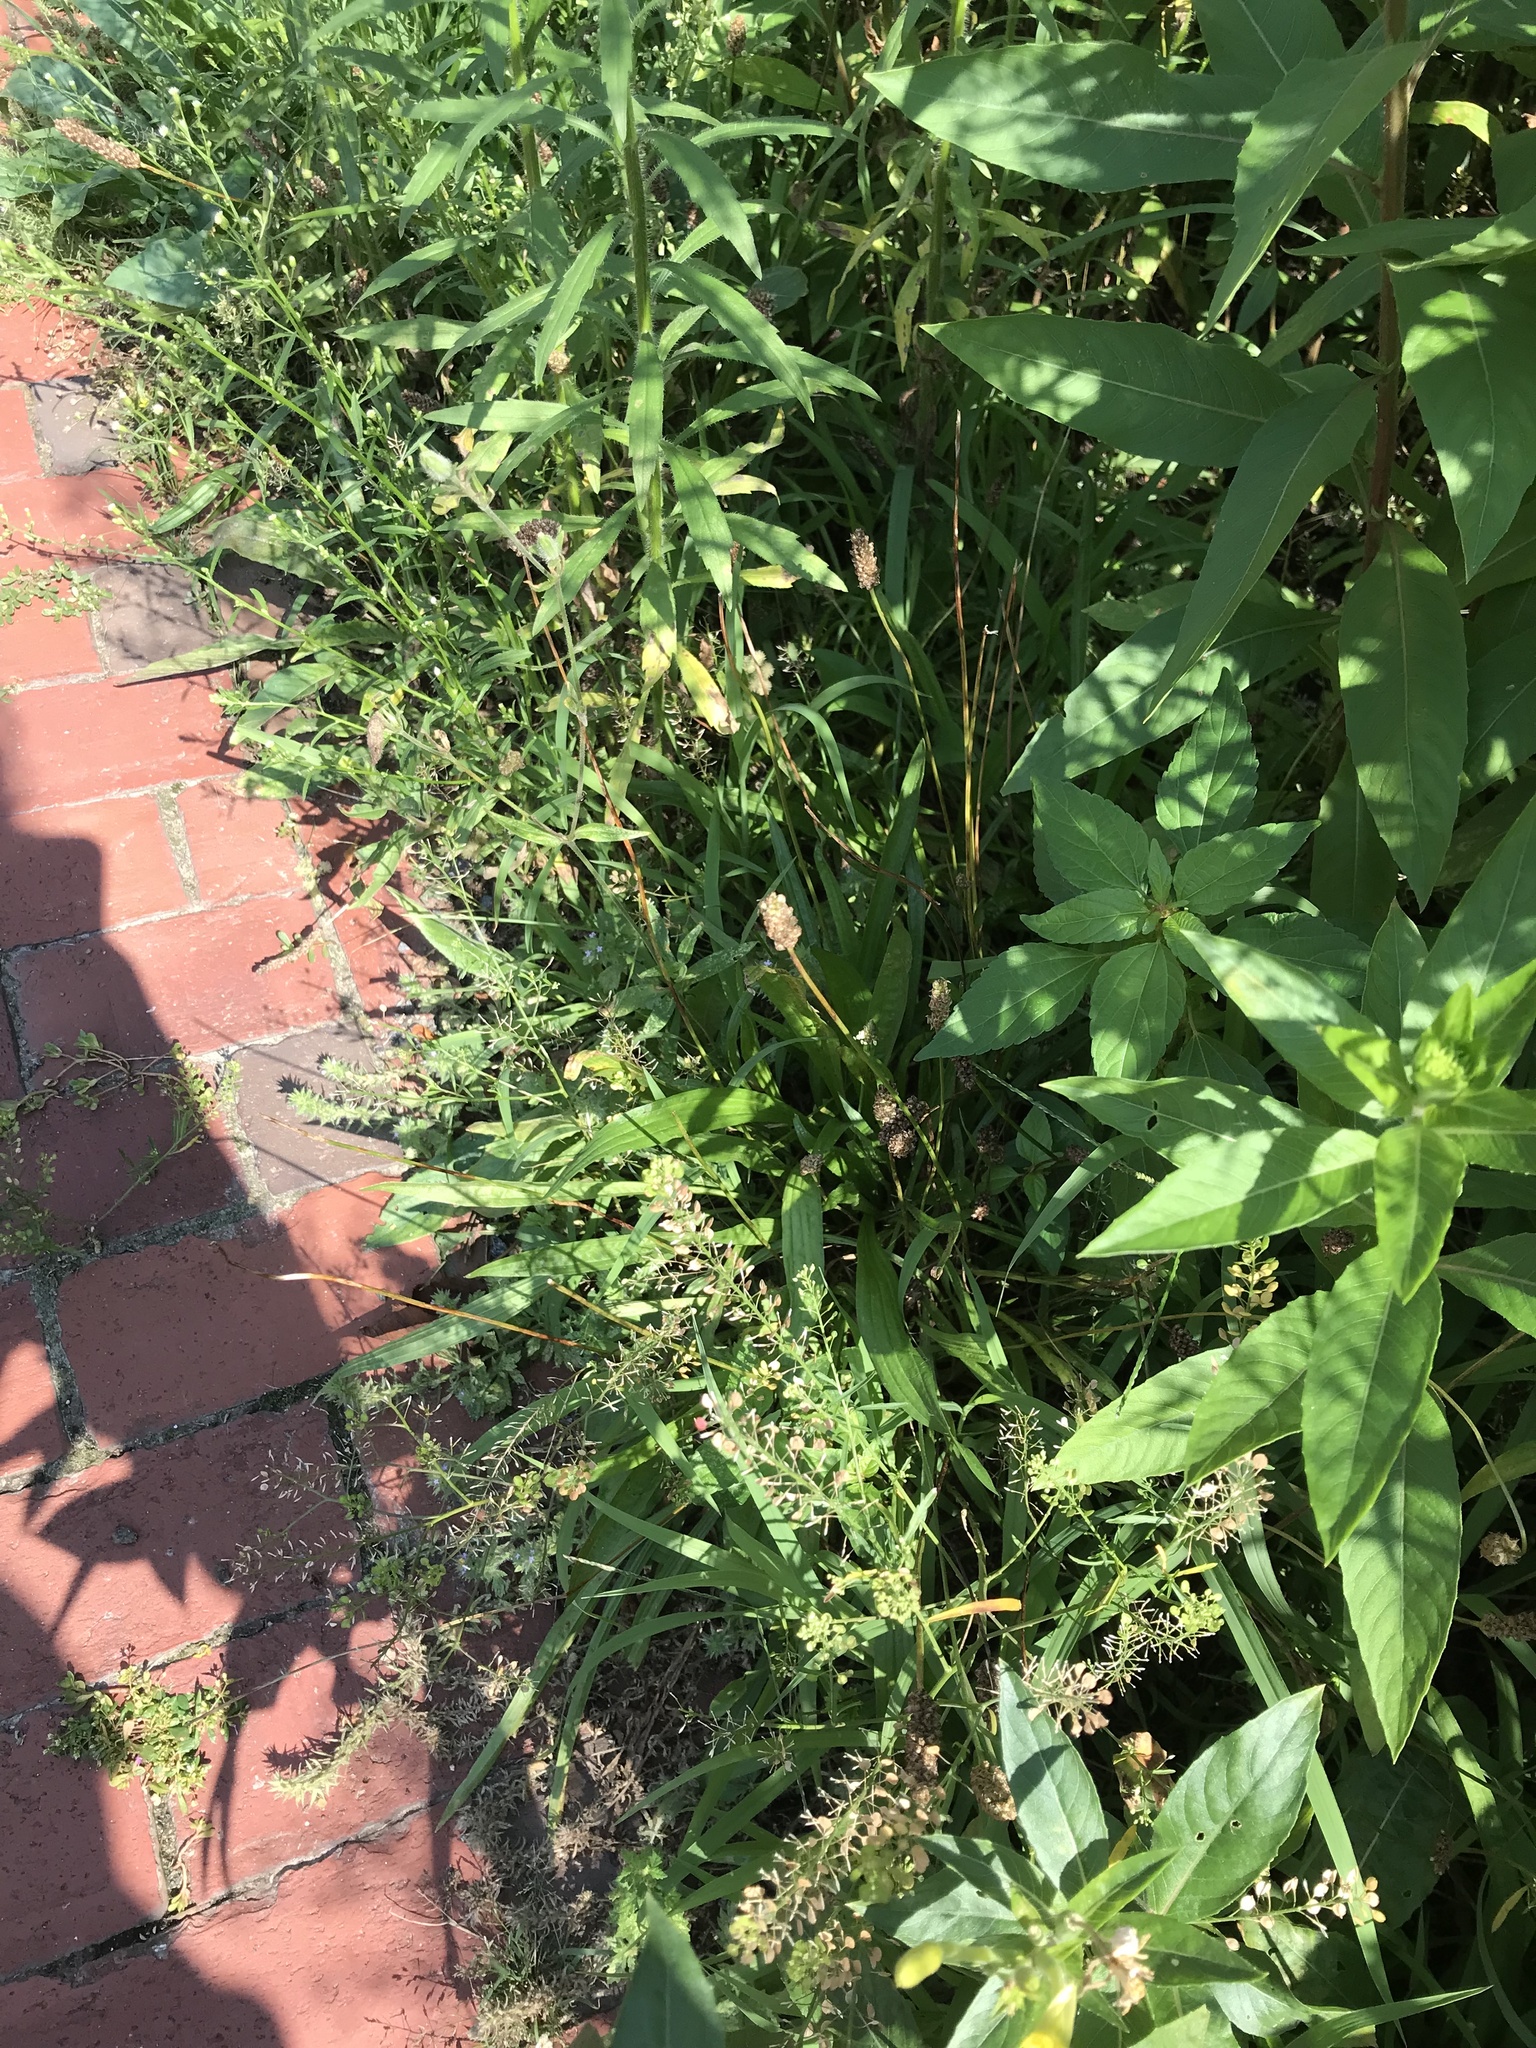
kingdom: Plantae
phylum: Tracheophyta
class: Magnoliopsida
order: Lamiales
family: Plantaginaceae
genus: Plantago
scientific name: Plantago lanceolata
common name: Ribwort plantain
